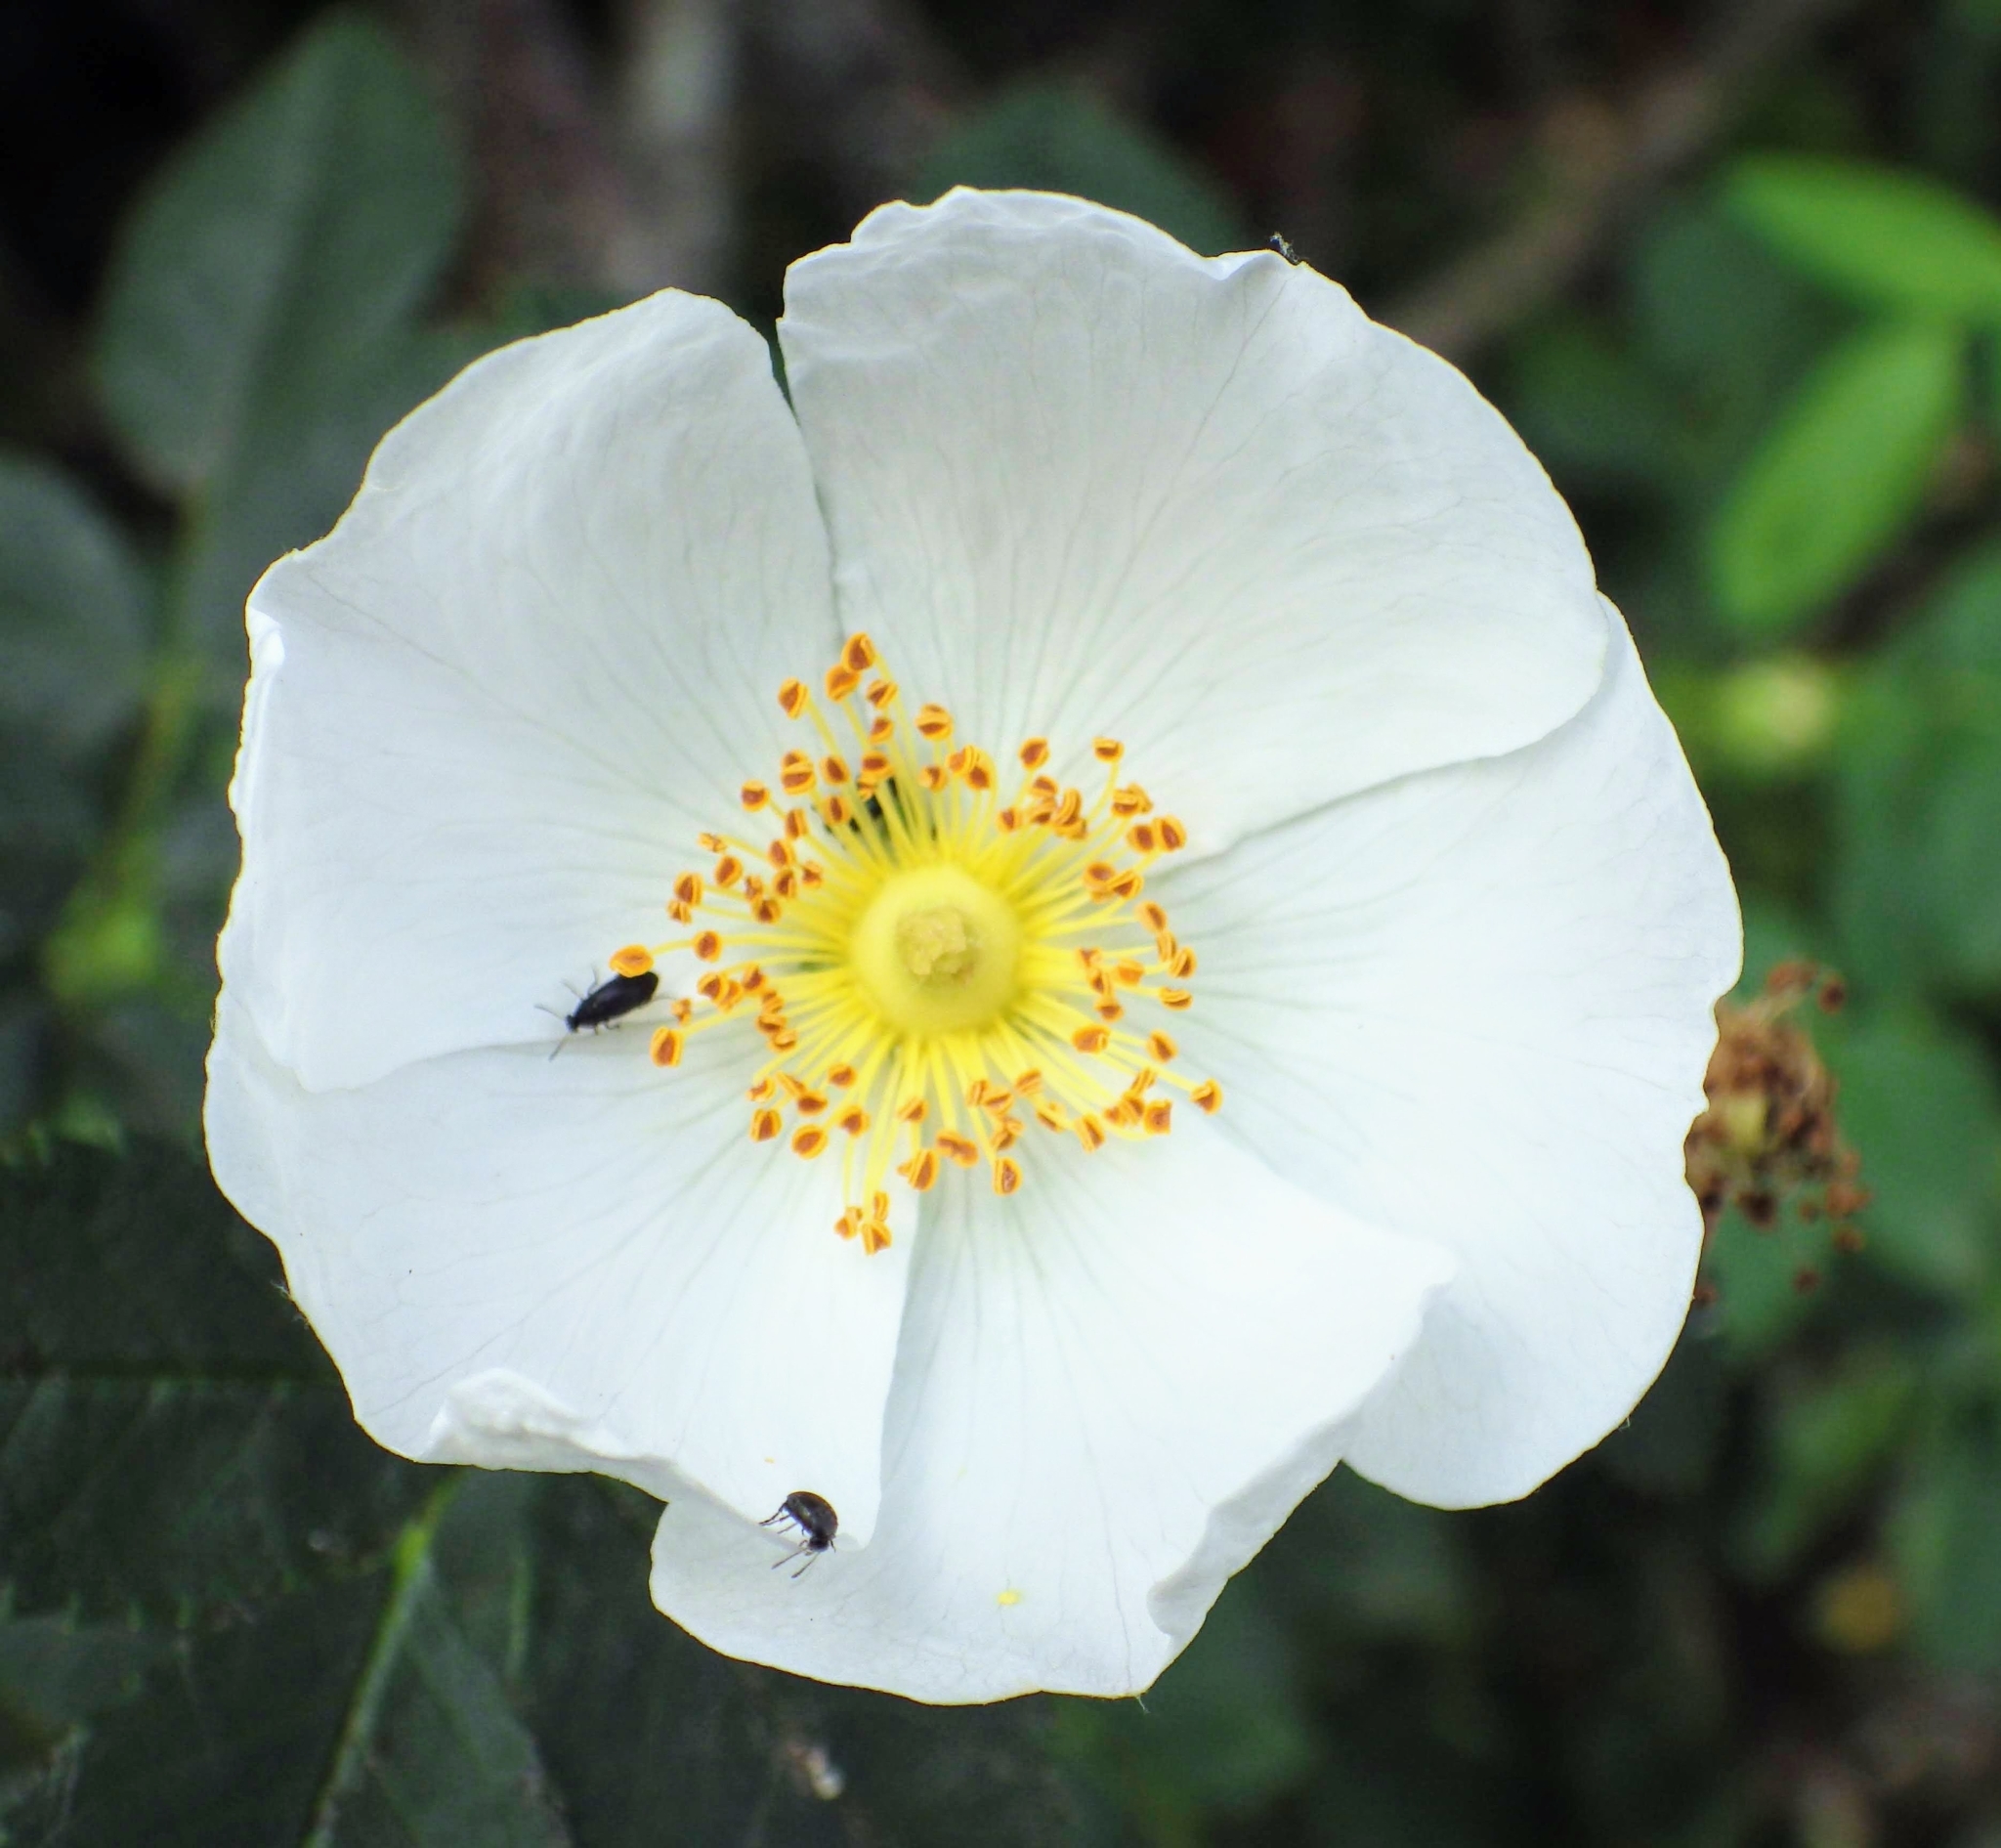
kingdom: Plantae
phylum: Tracheophyta
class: Magnoliopsida
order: Rosales
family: Rosaceae
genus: Rosa
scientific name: Rosa canina
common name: Dog rose
